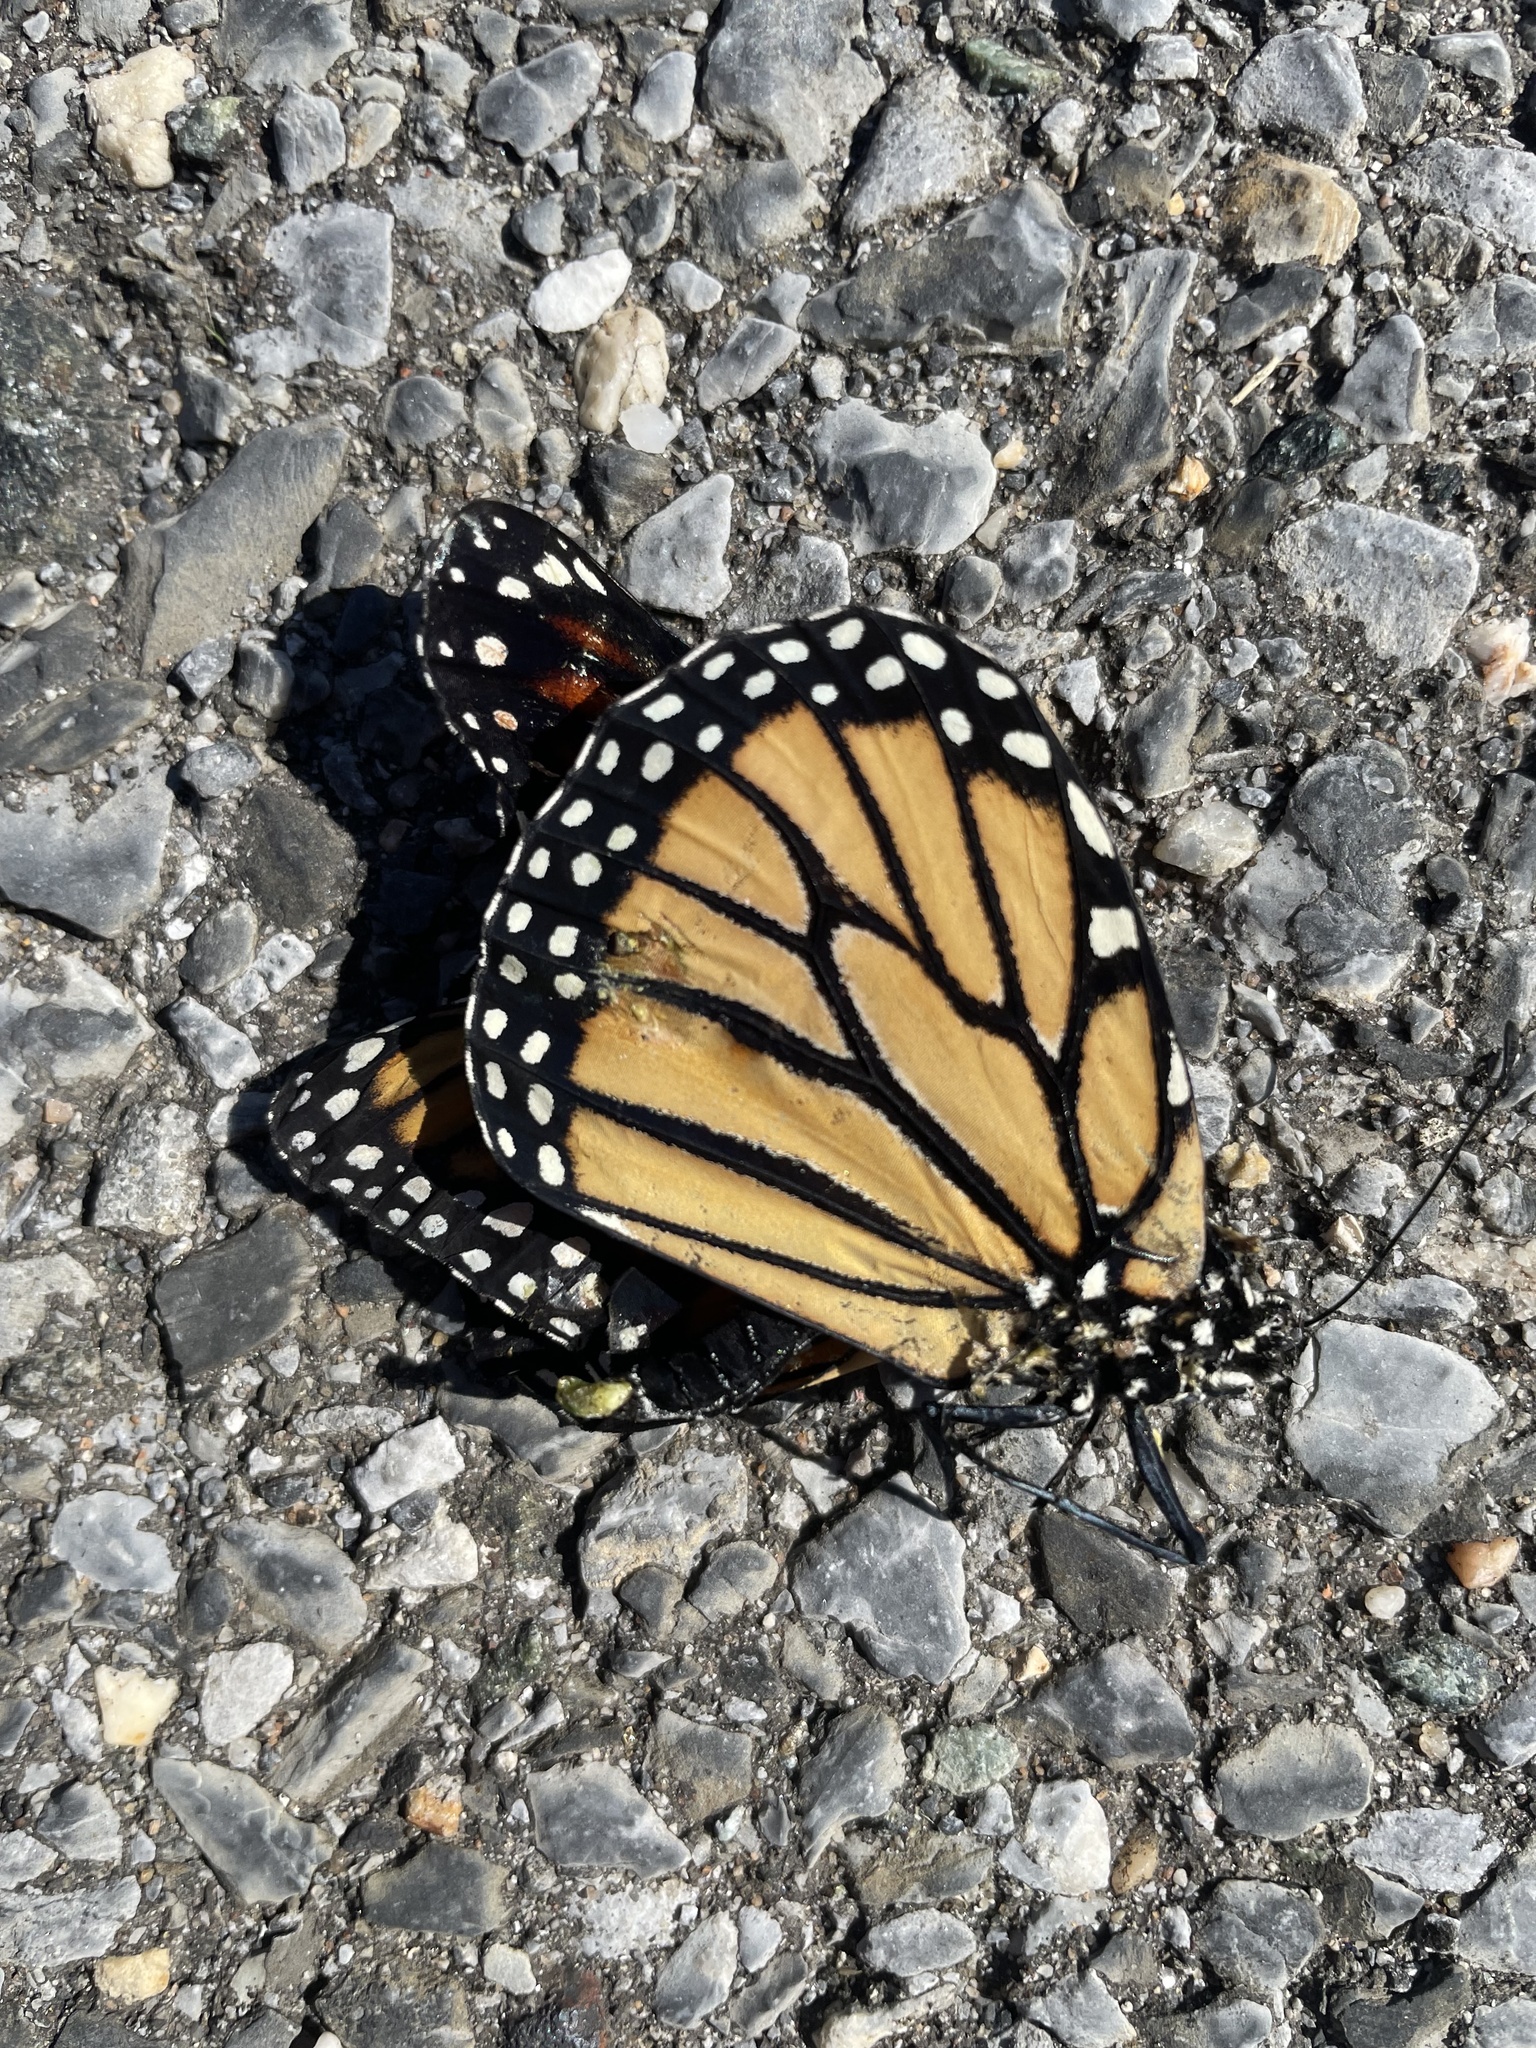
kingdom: Animalia
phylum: Arthropoda
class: Insecta
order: Lepidoptera
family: Nymphalidae
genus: Danaus
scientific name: Danaus plexippus
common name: Monarch
